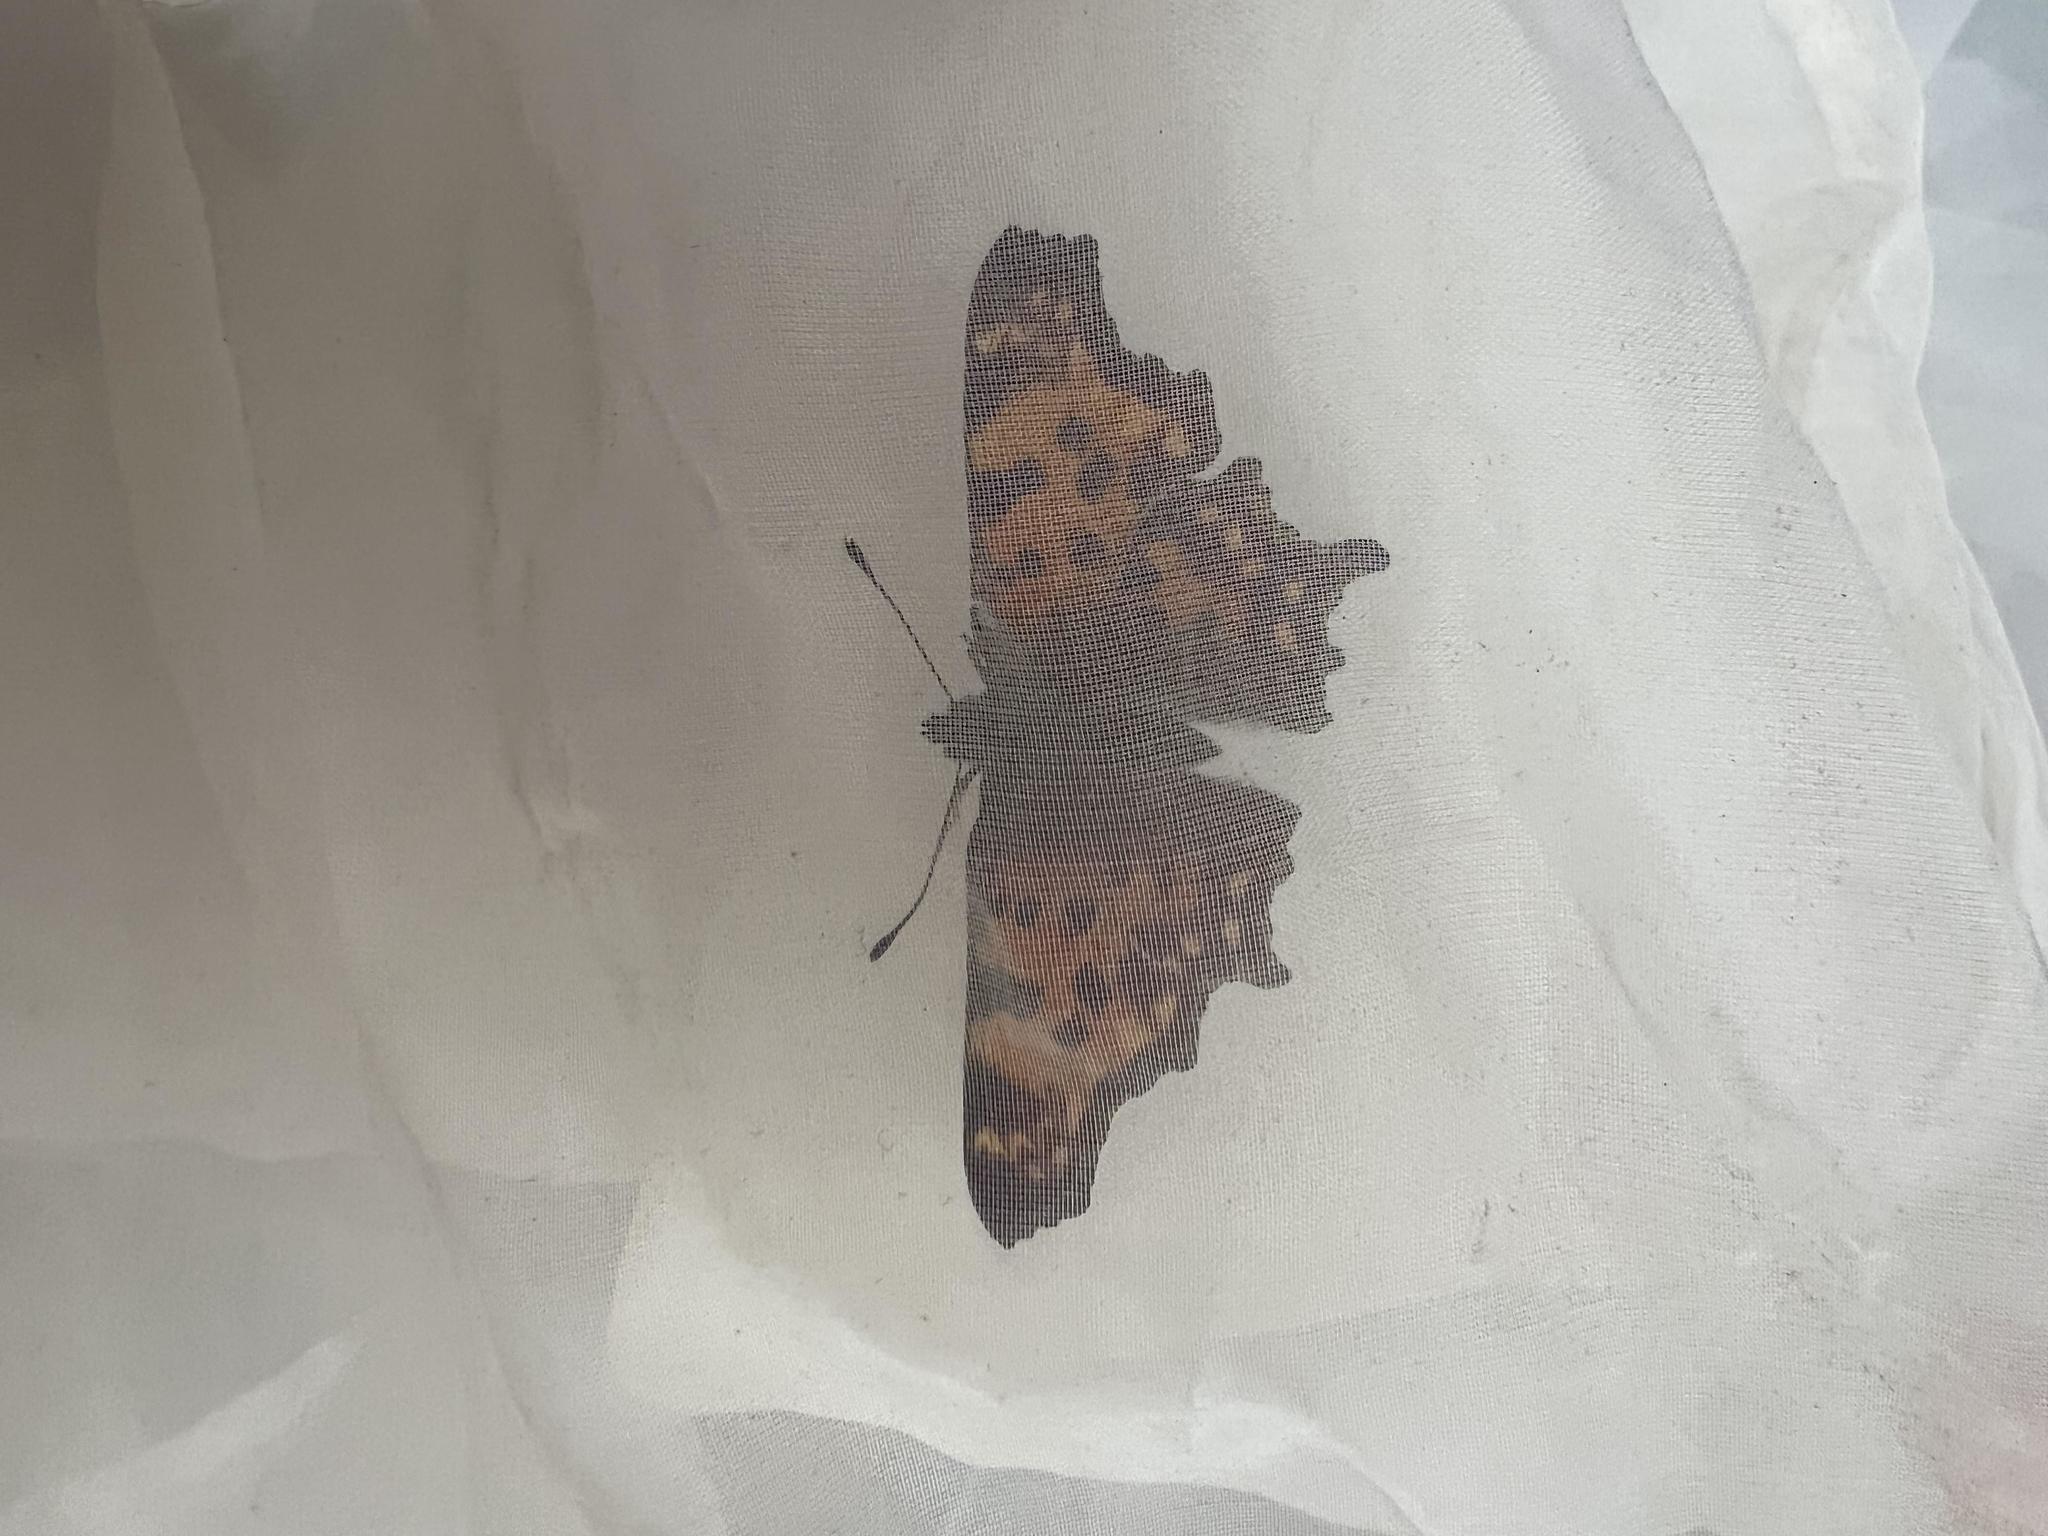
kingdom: Animalia
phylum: Arthropoda
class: Insecta
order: Lepidoptera
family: Nymphalidae
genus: Polygonia
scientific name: Polygonia c-album
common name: Comma
